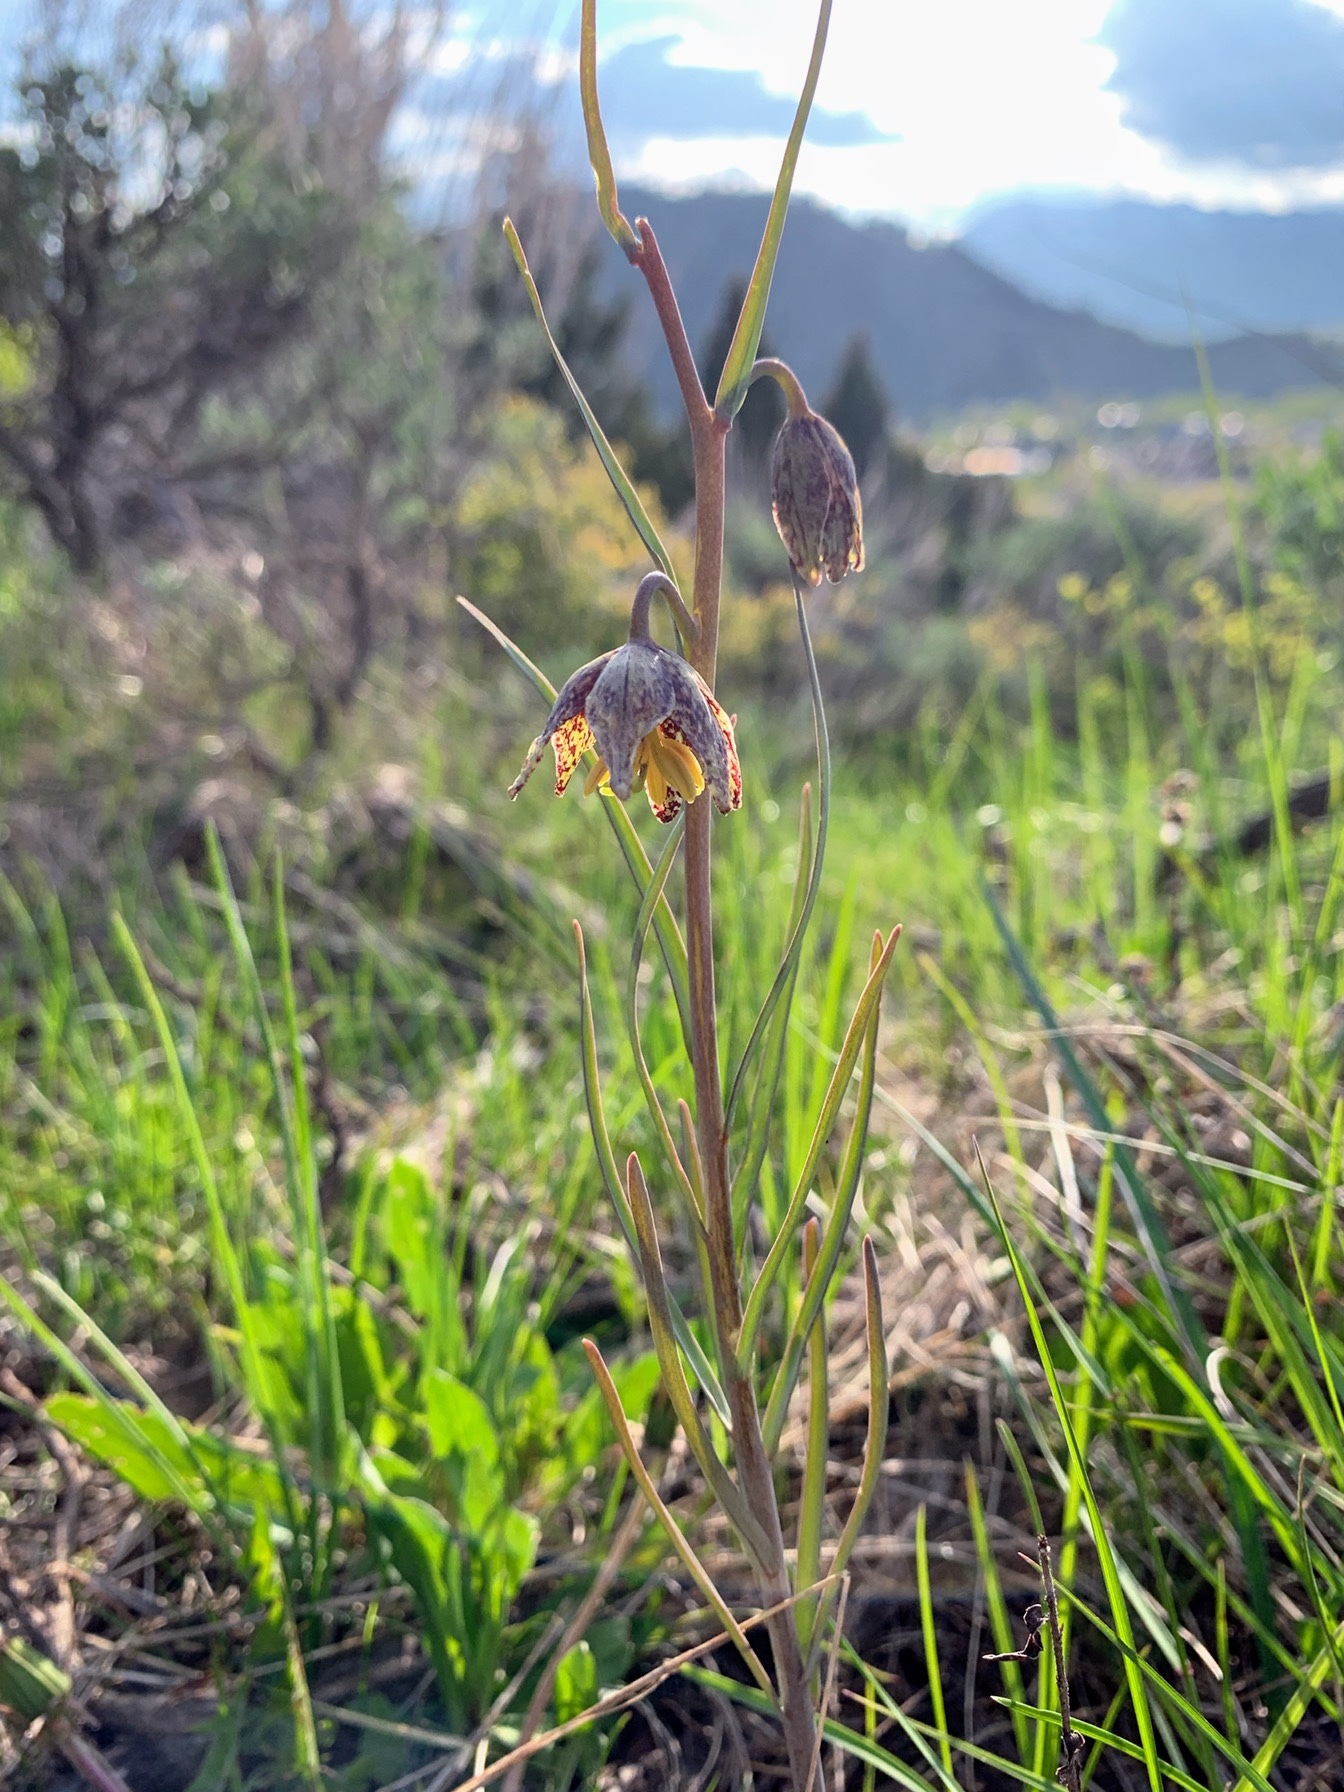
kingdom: Plantae
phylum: Tracheophyta
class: Liliopsida
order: Liliales
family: Liliaceae
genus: Fritillaria
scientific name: Fritillaria atropurpurea
